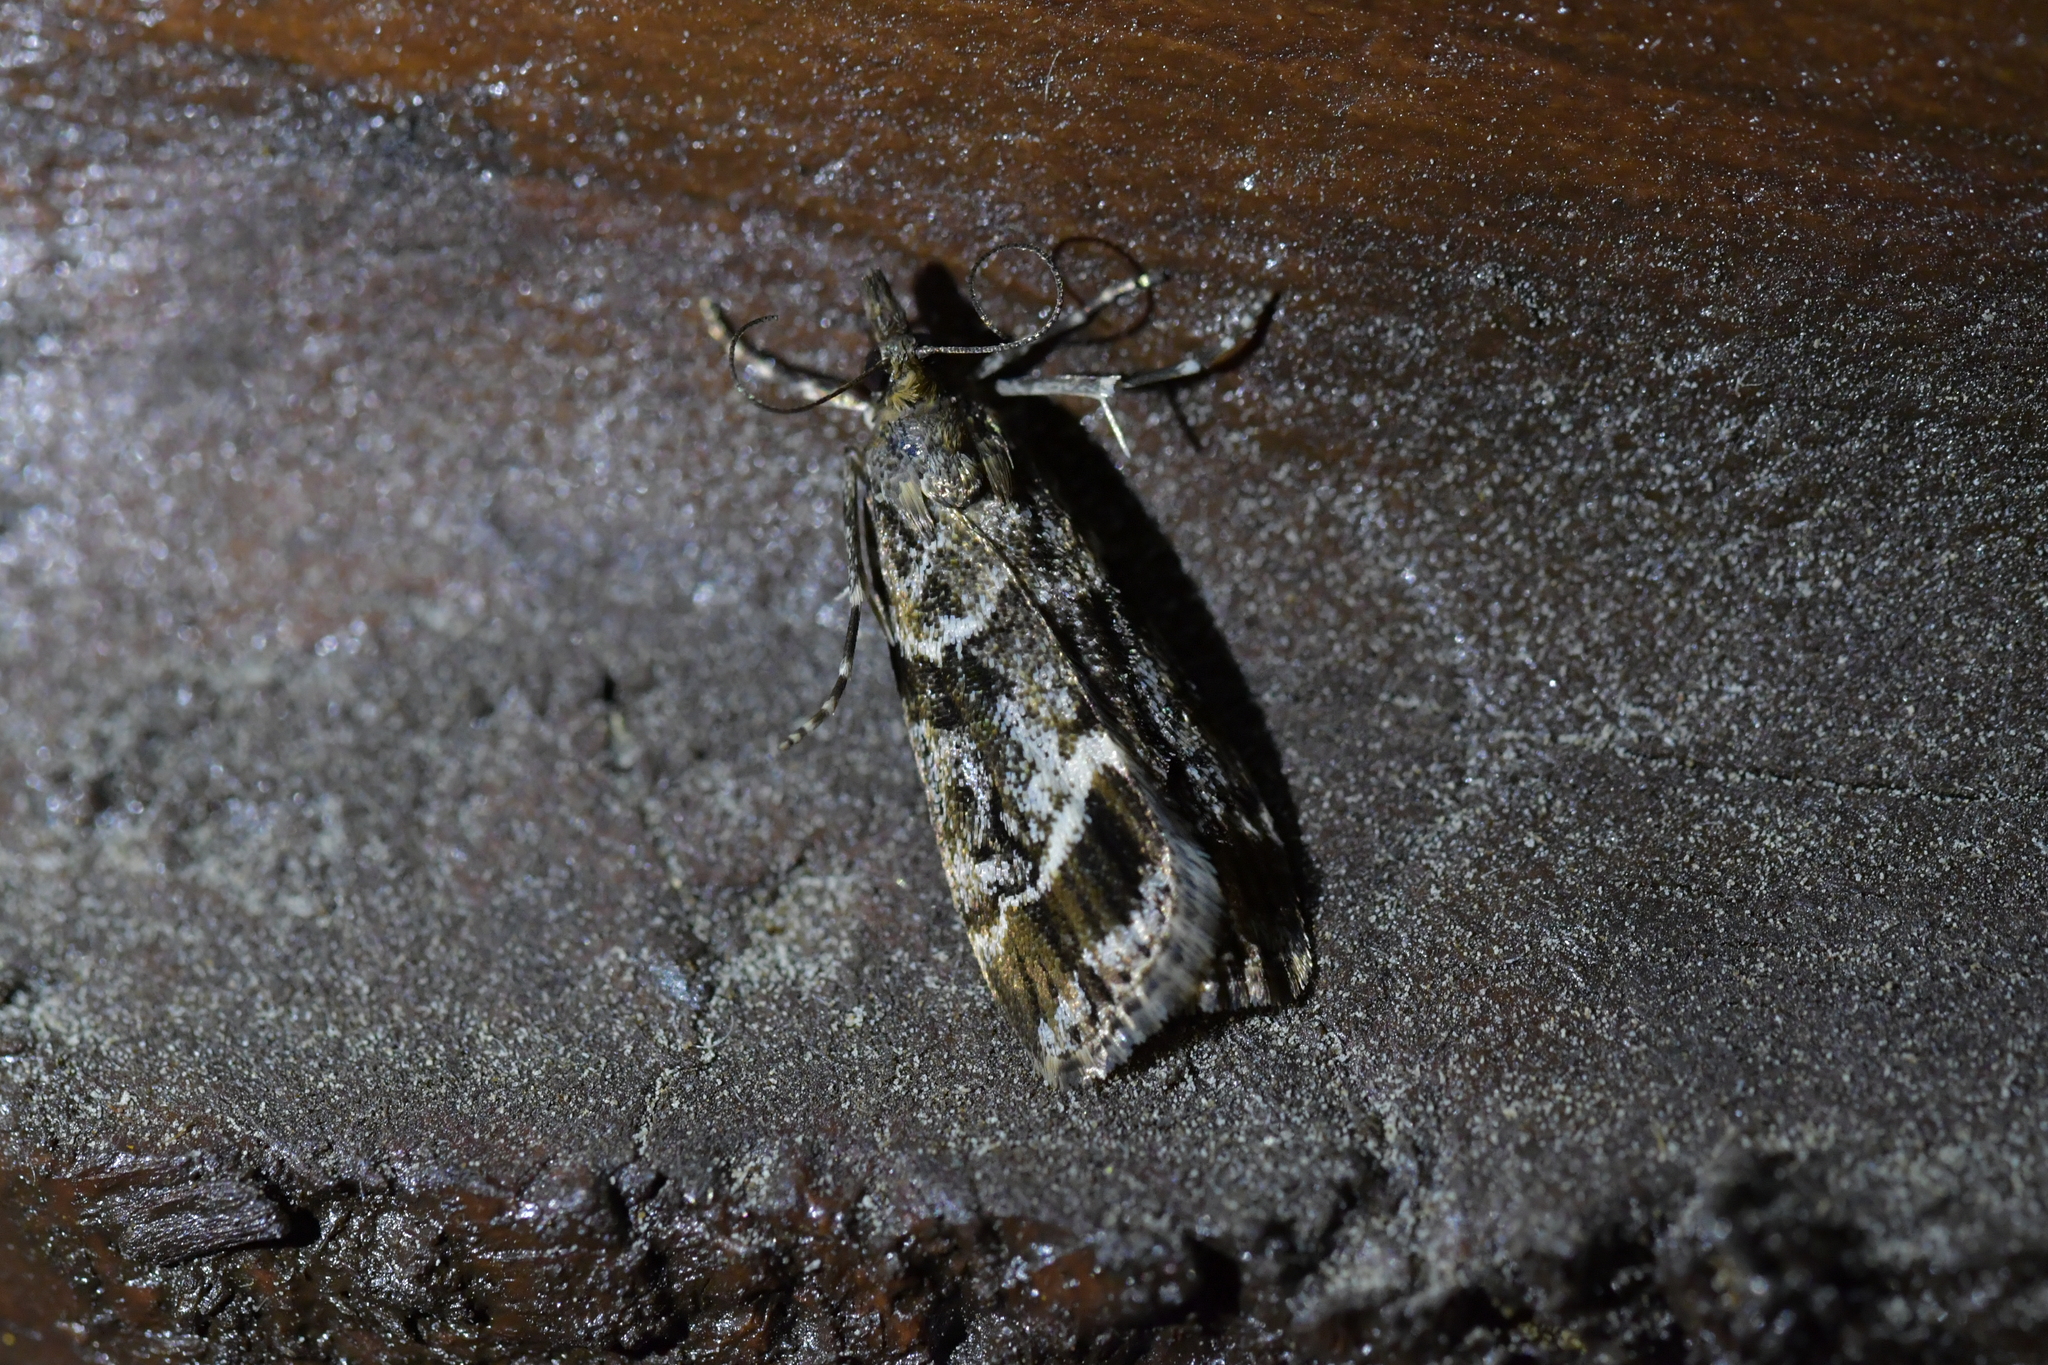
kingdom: Animalia
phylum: Arthropoda
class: Insecta
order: Lepidoptera
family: Crambidae
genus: Eudonia
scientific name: Eudonia legnota
